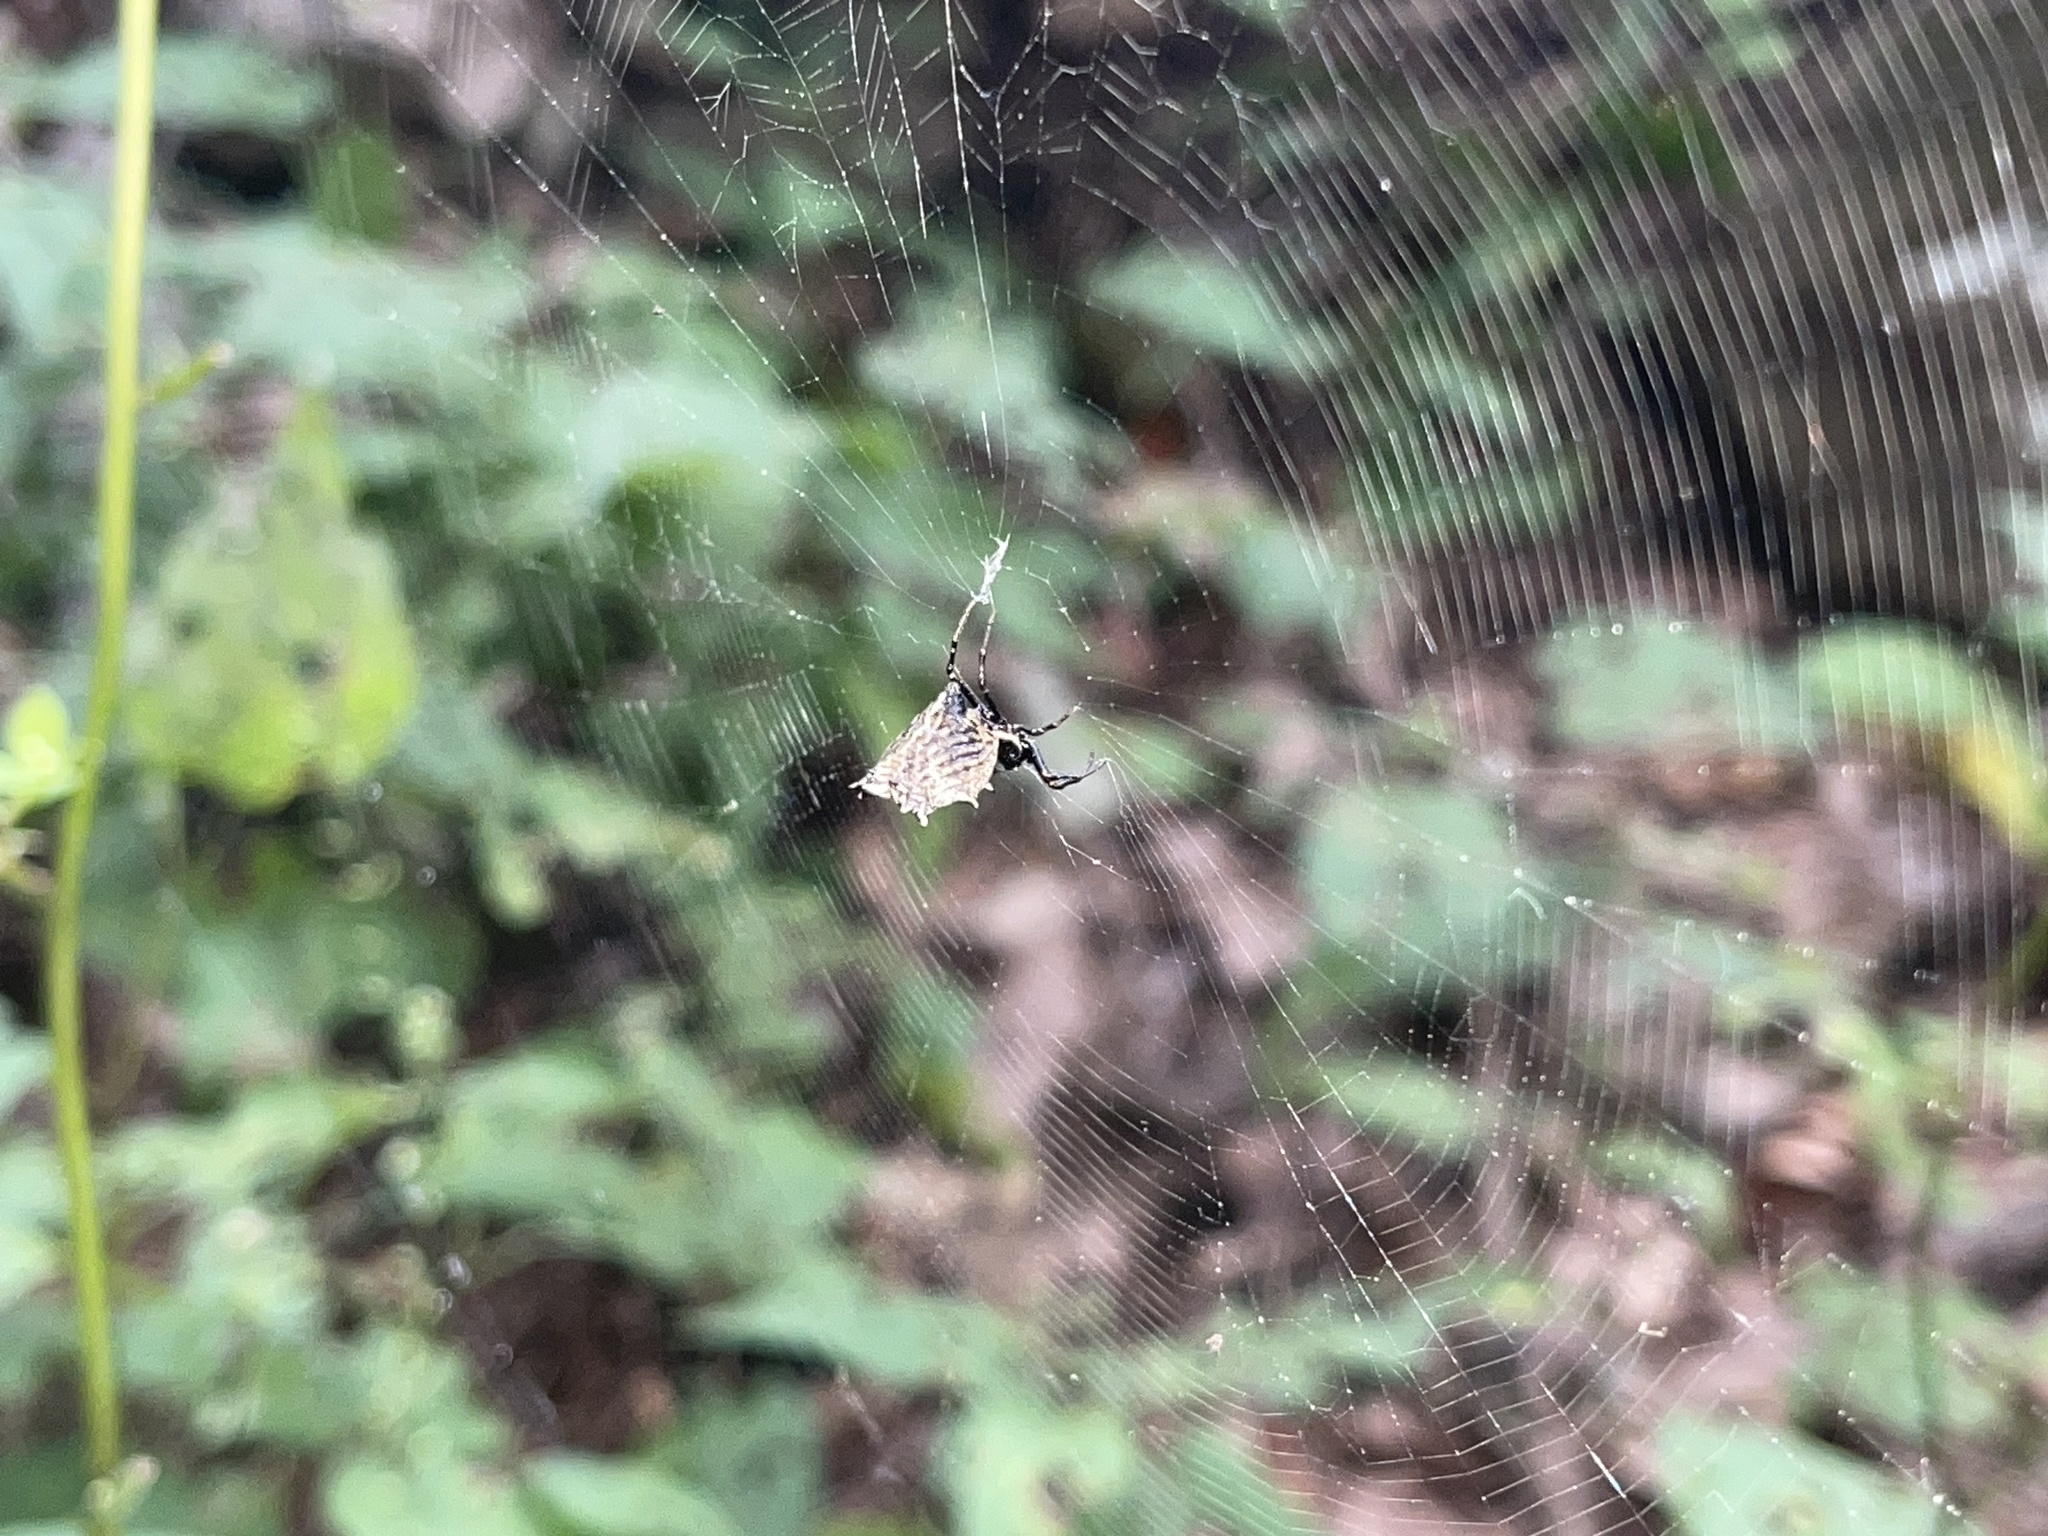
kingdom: Animalia
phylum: Arthropoda
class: Arachnida
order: Araneae
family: Araneidae
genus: Micrathena
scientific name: Micrathena gracilis
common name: Orb weavers
